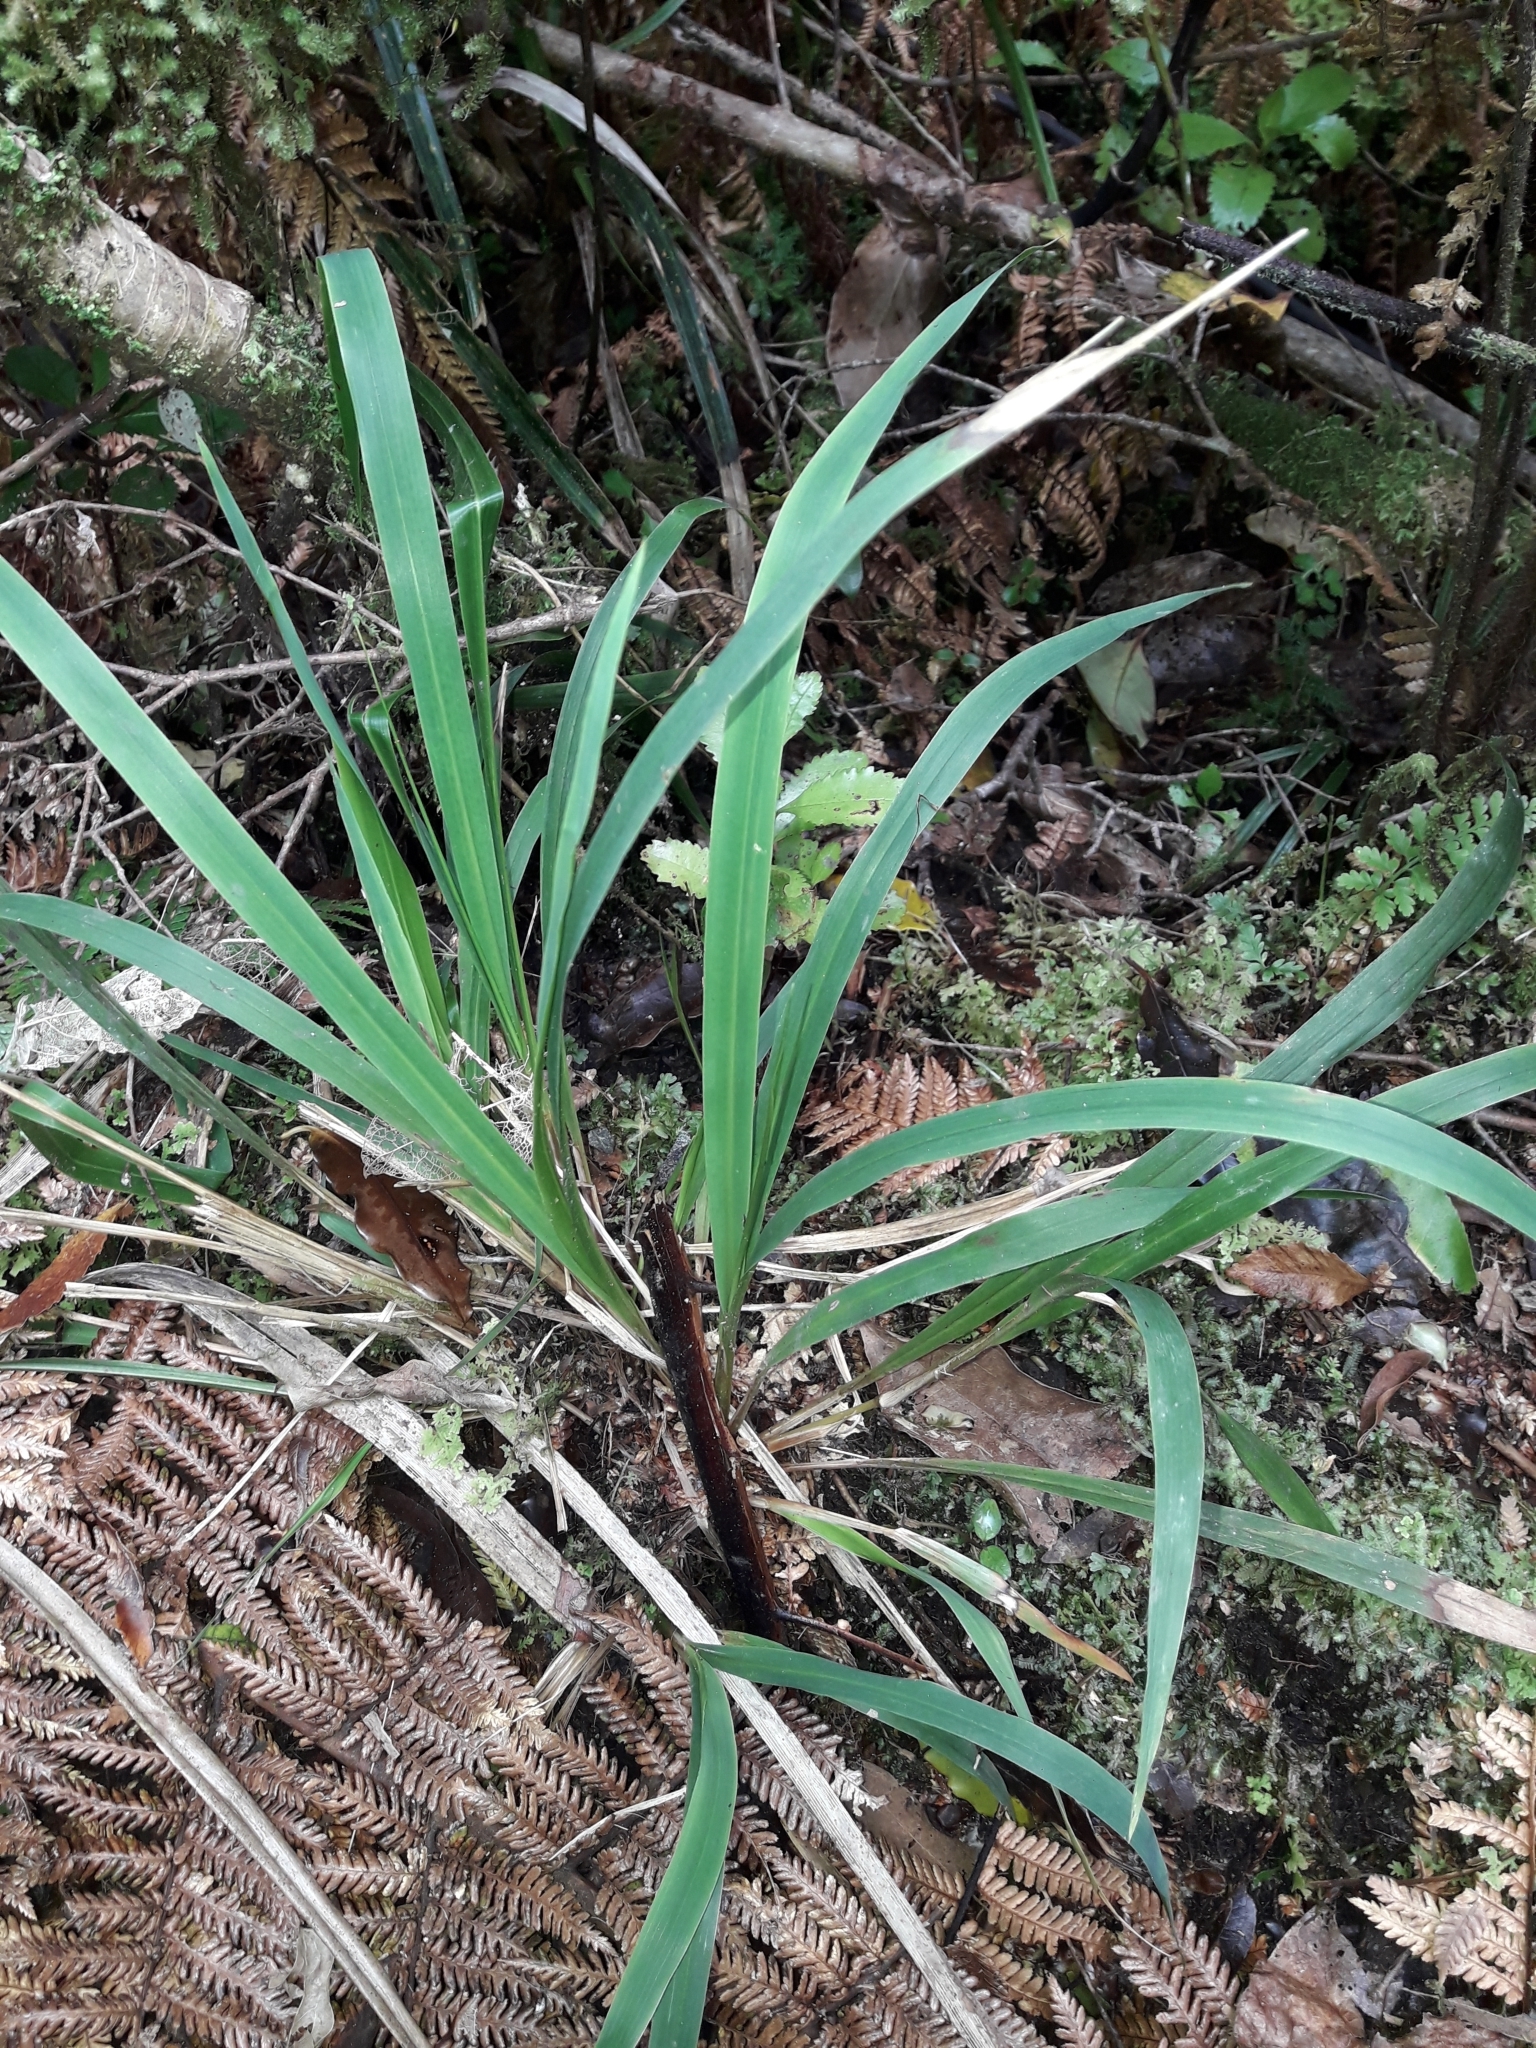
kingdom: Plantae
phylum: Tracheophyta
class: Liliopsida
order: Poales
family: Poaceae
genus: Ehrharta
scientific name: Ehrharta diplax
